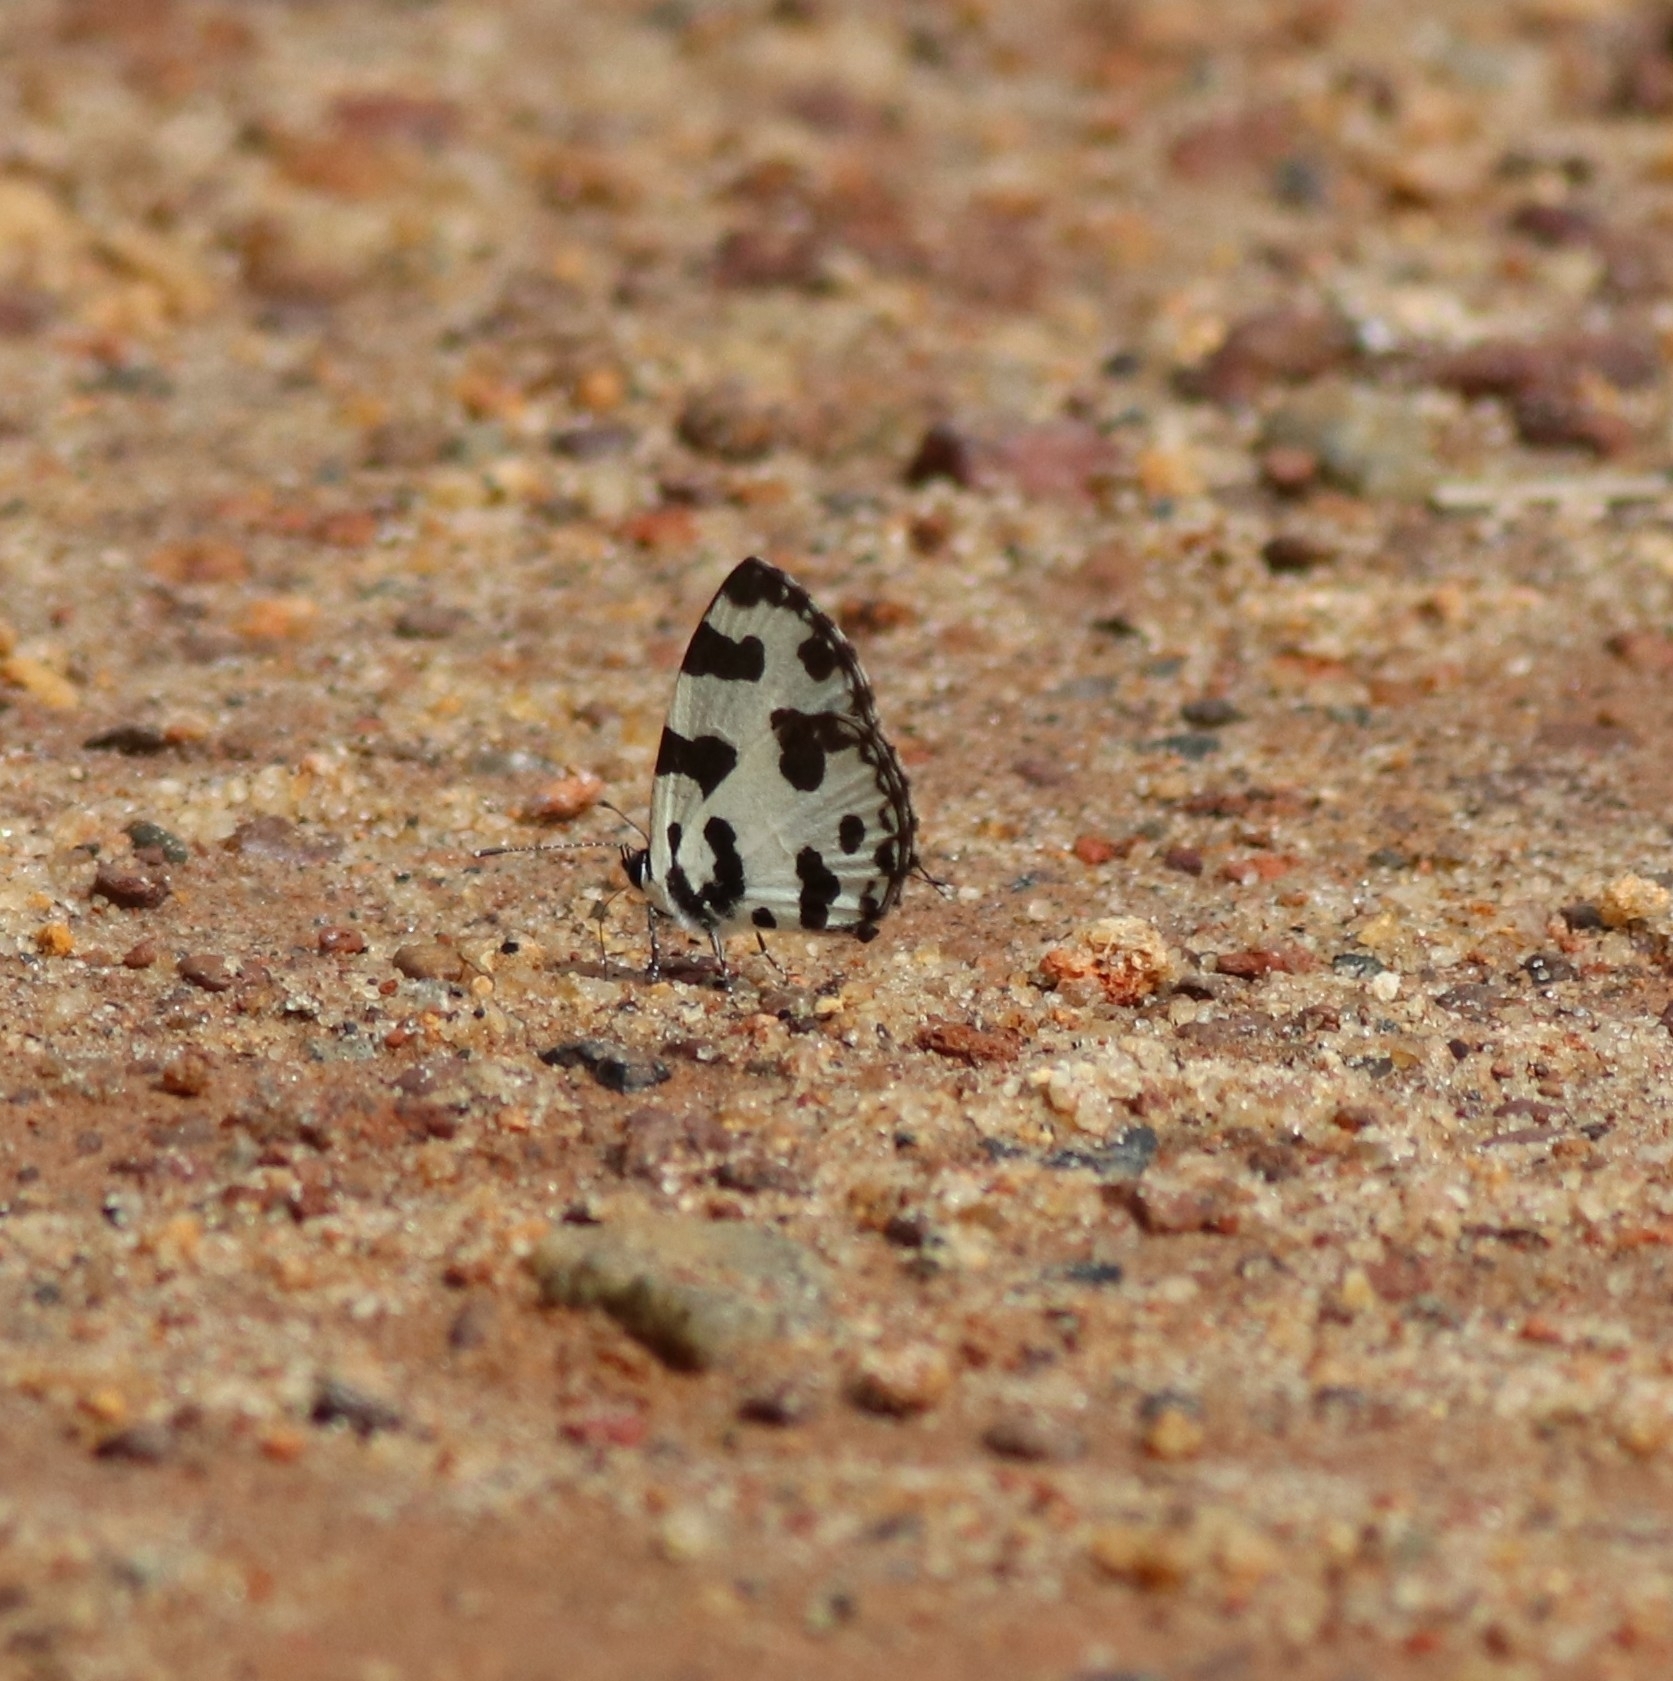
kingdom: Animalia
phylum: Arthropoda
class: Insecta
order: Lepidoptera
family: Lycaenidae
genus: Caleta
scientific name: Caleta decidia
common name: Angled pierrot
